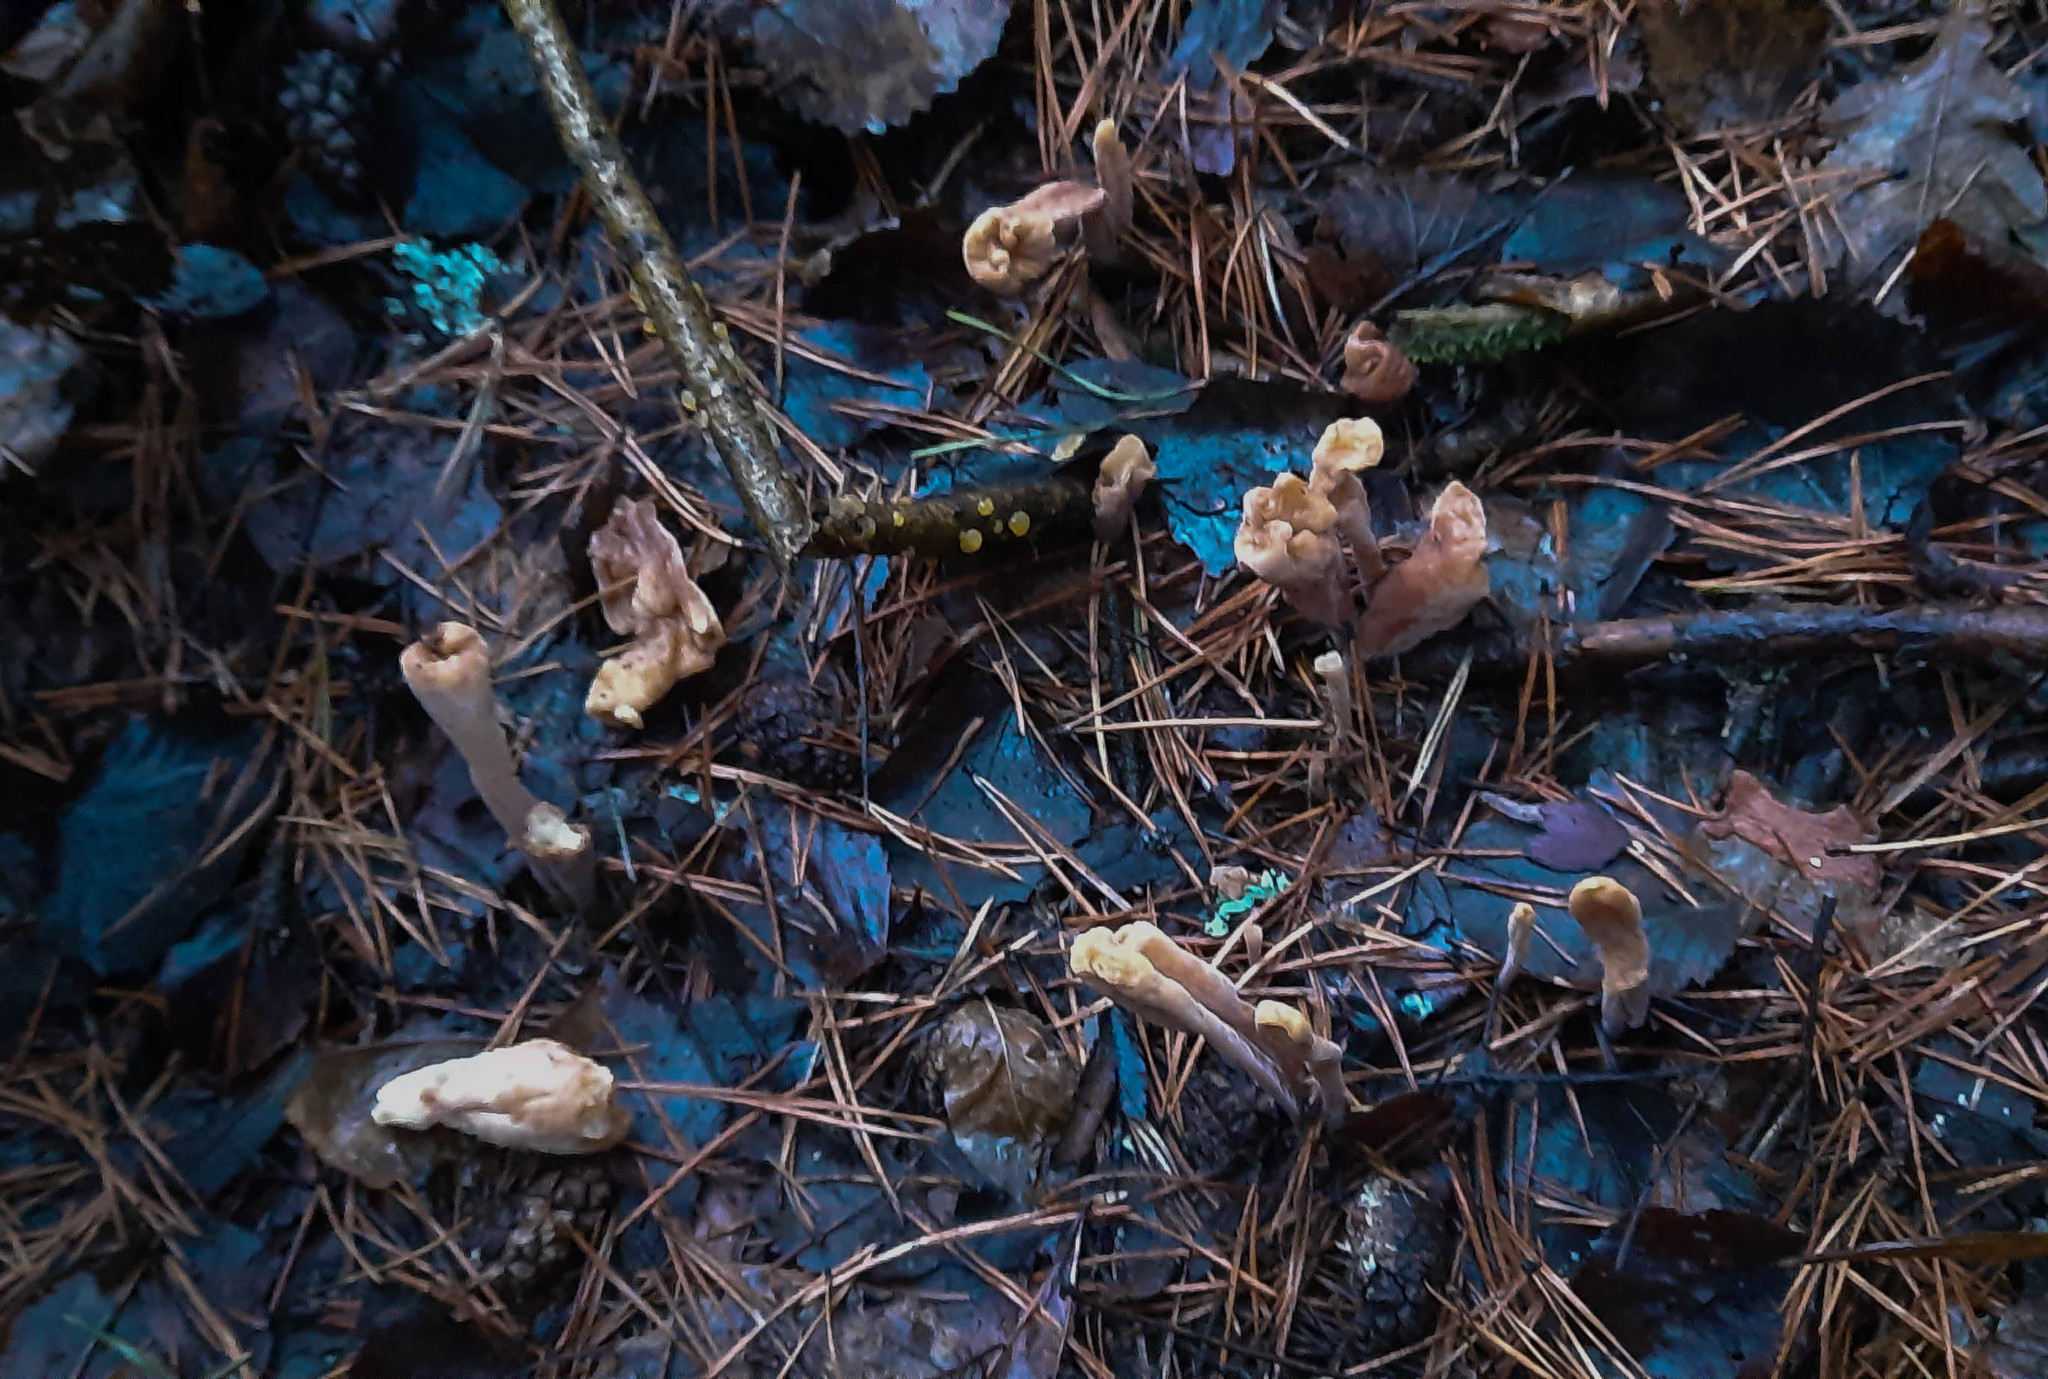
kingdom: Fungi
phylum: Basidiomycota
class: Agaricomycetes
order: Gomphales
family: Clavariadelphaceae
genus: Clavariadelphus
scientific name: Clavariadelphus ligula
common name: Ochre club
